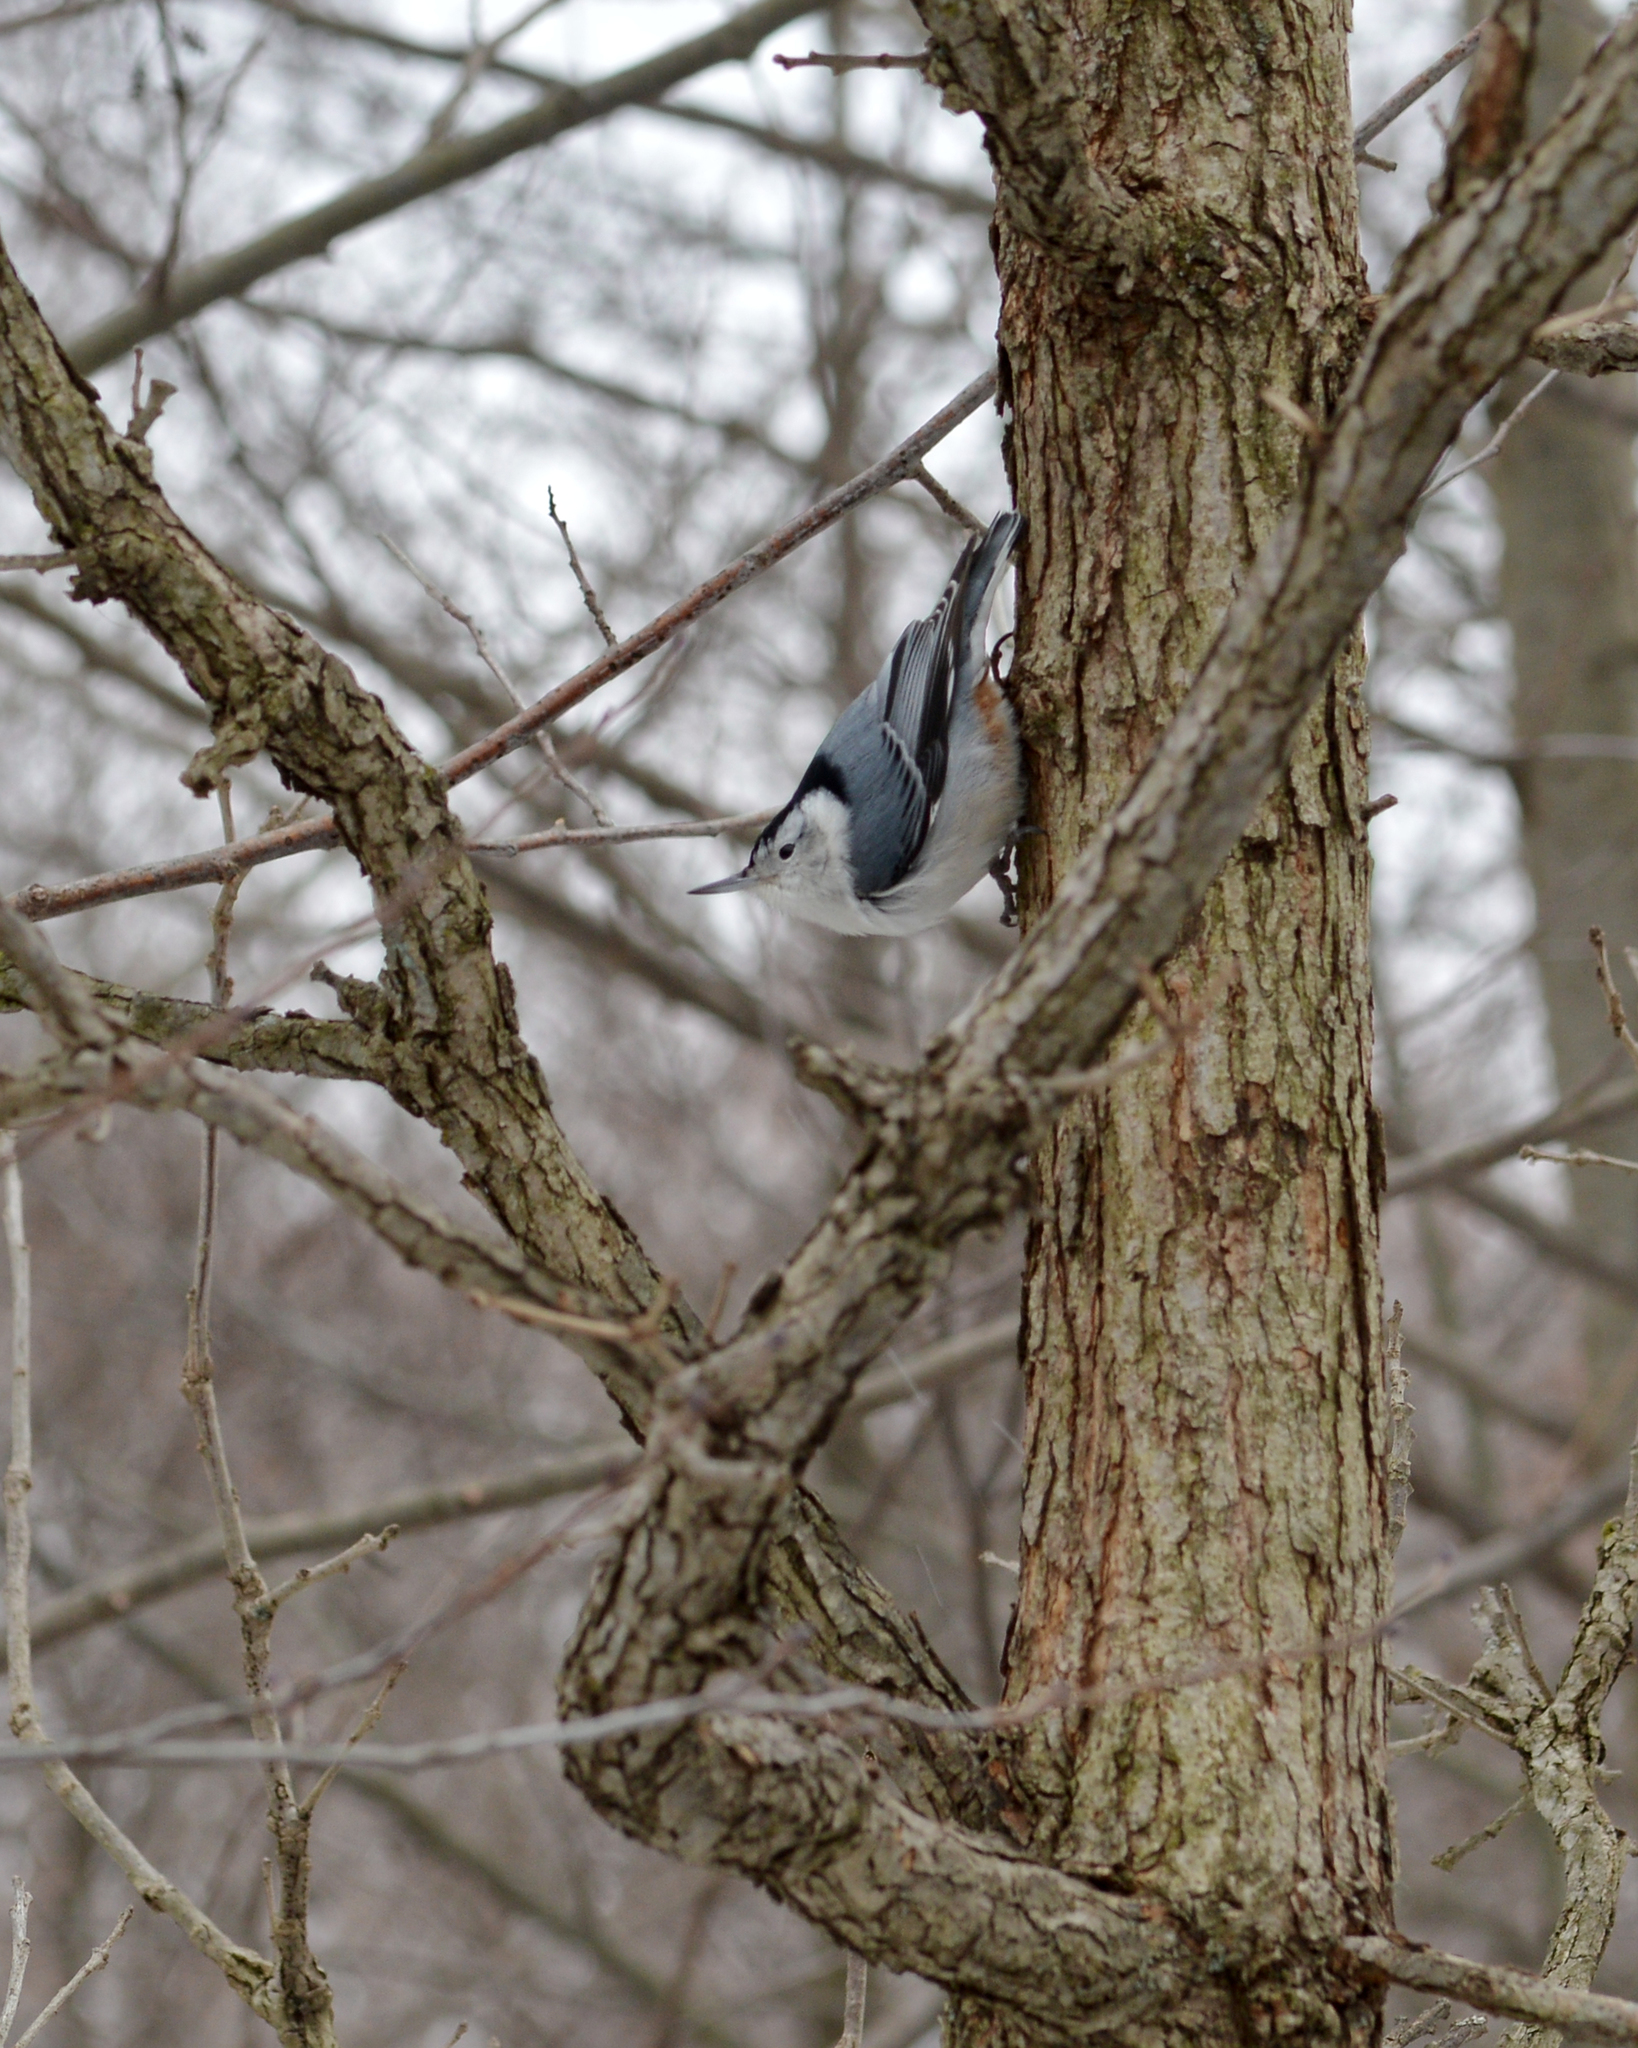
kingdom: Animalia
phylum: Chordata
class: Aves
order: Passeriformes
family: Sittidae
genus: Sitta
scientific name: Sitta carolinensis
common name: White-breasted nuthatch
